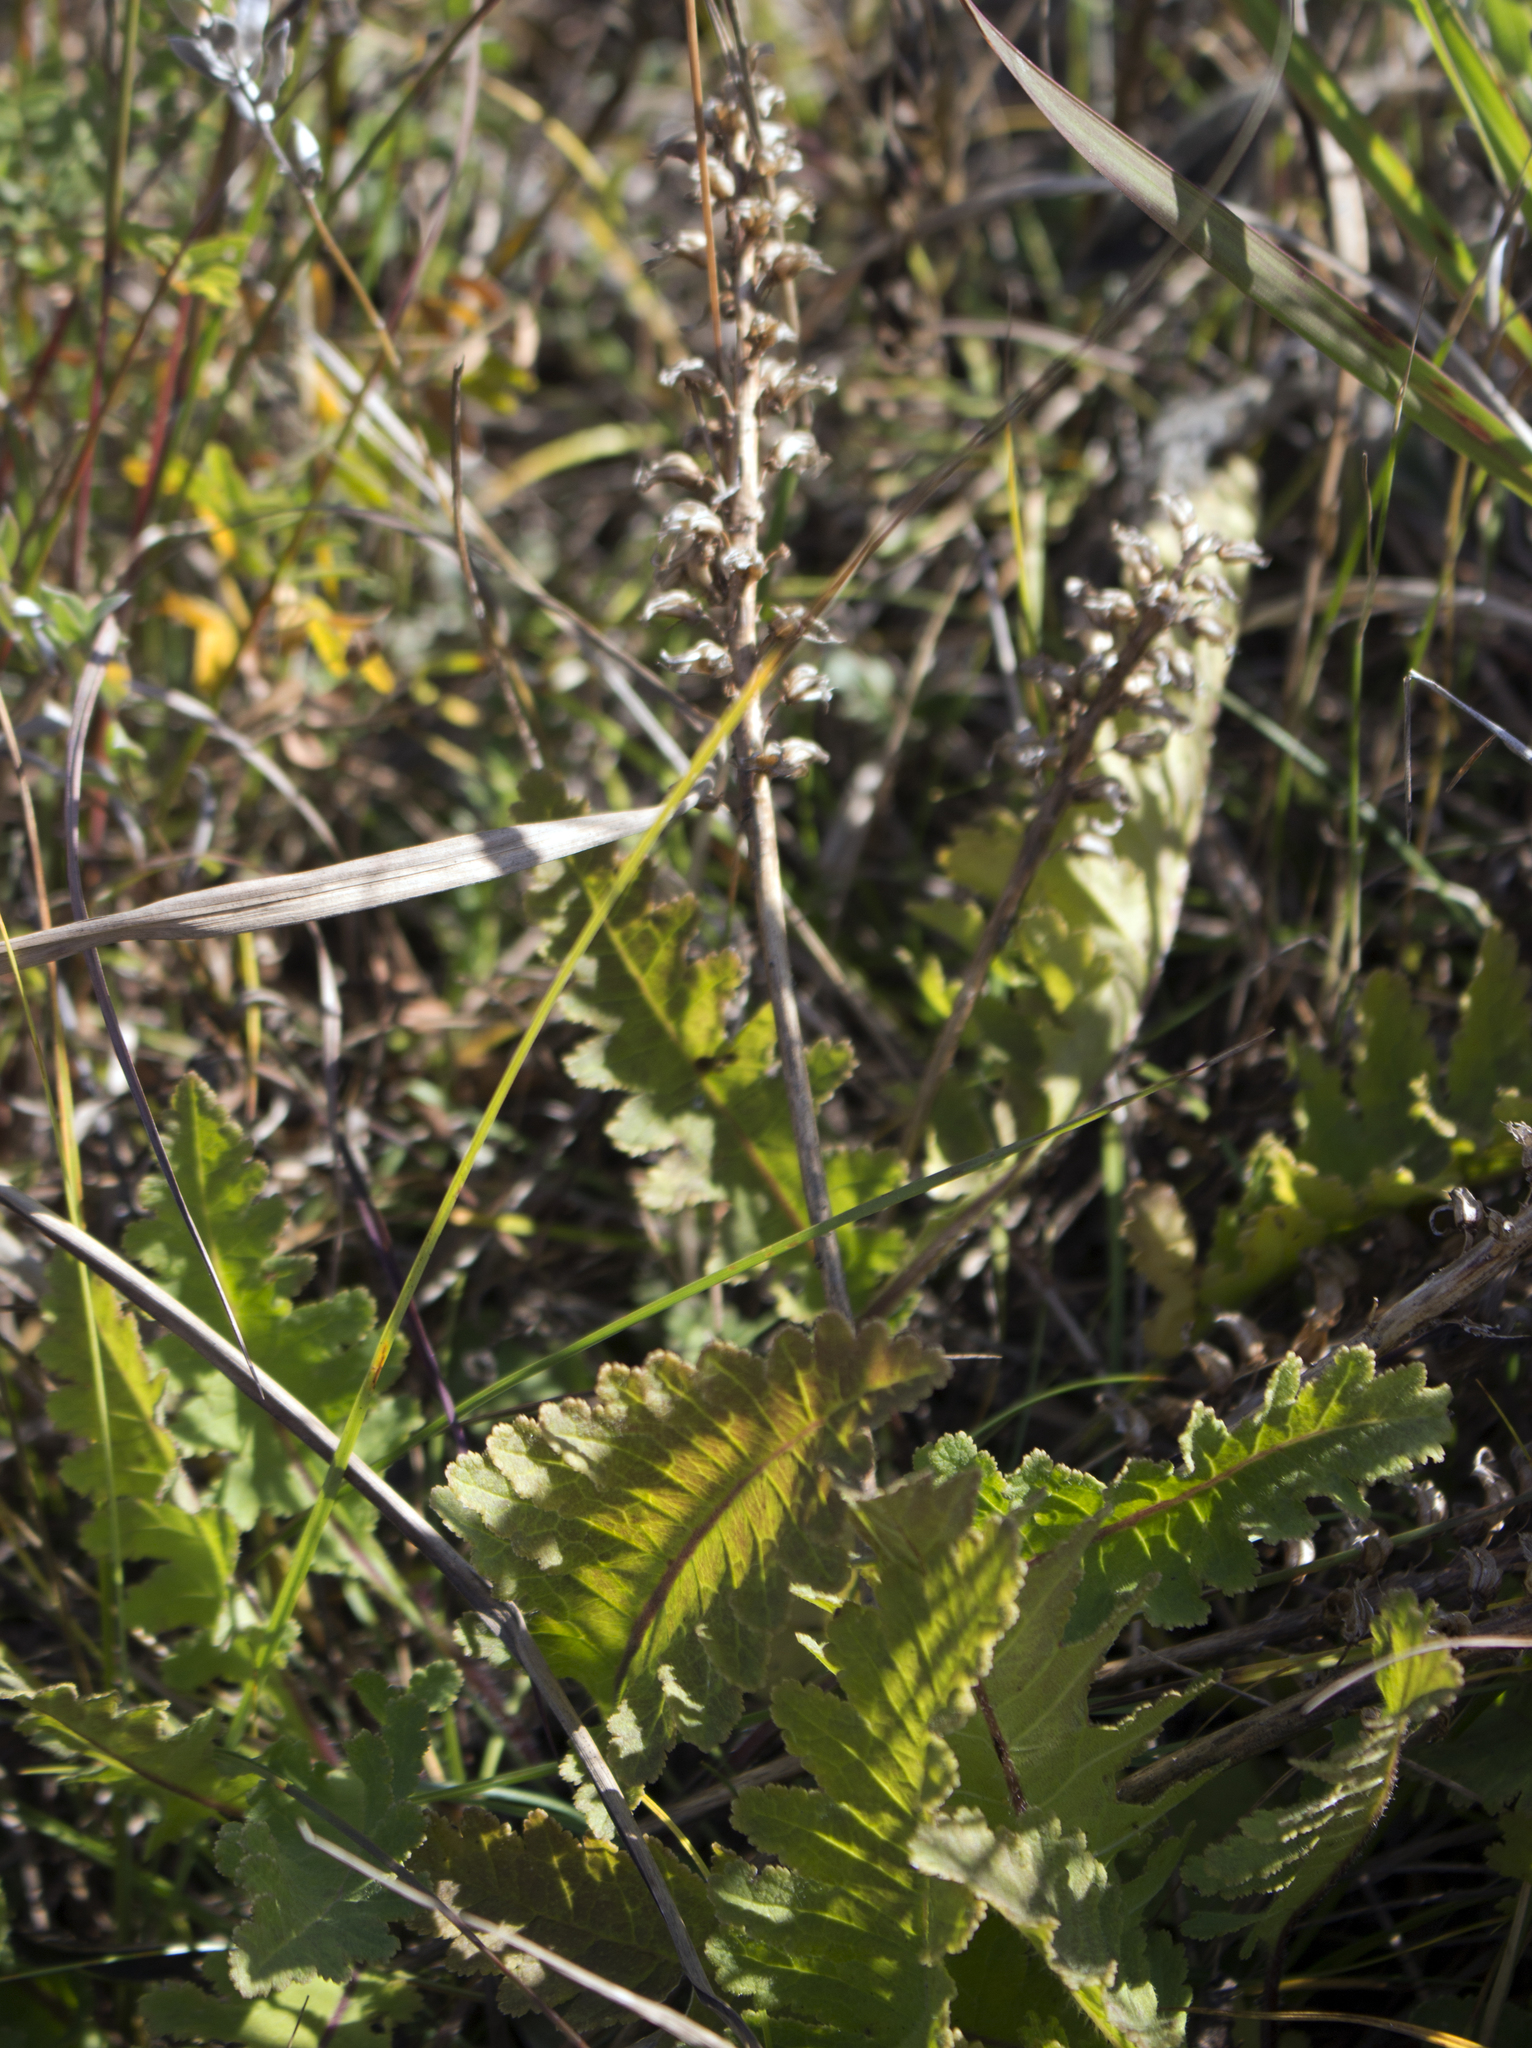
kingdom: Plantae
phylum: Tracheophyta
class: Magnoliopsida
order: Lamiales
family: Orobanchaceae
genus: Pedicularis
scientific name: Pedicularis canadensis
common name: Early lousewort
